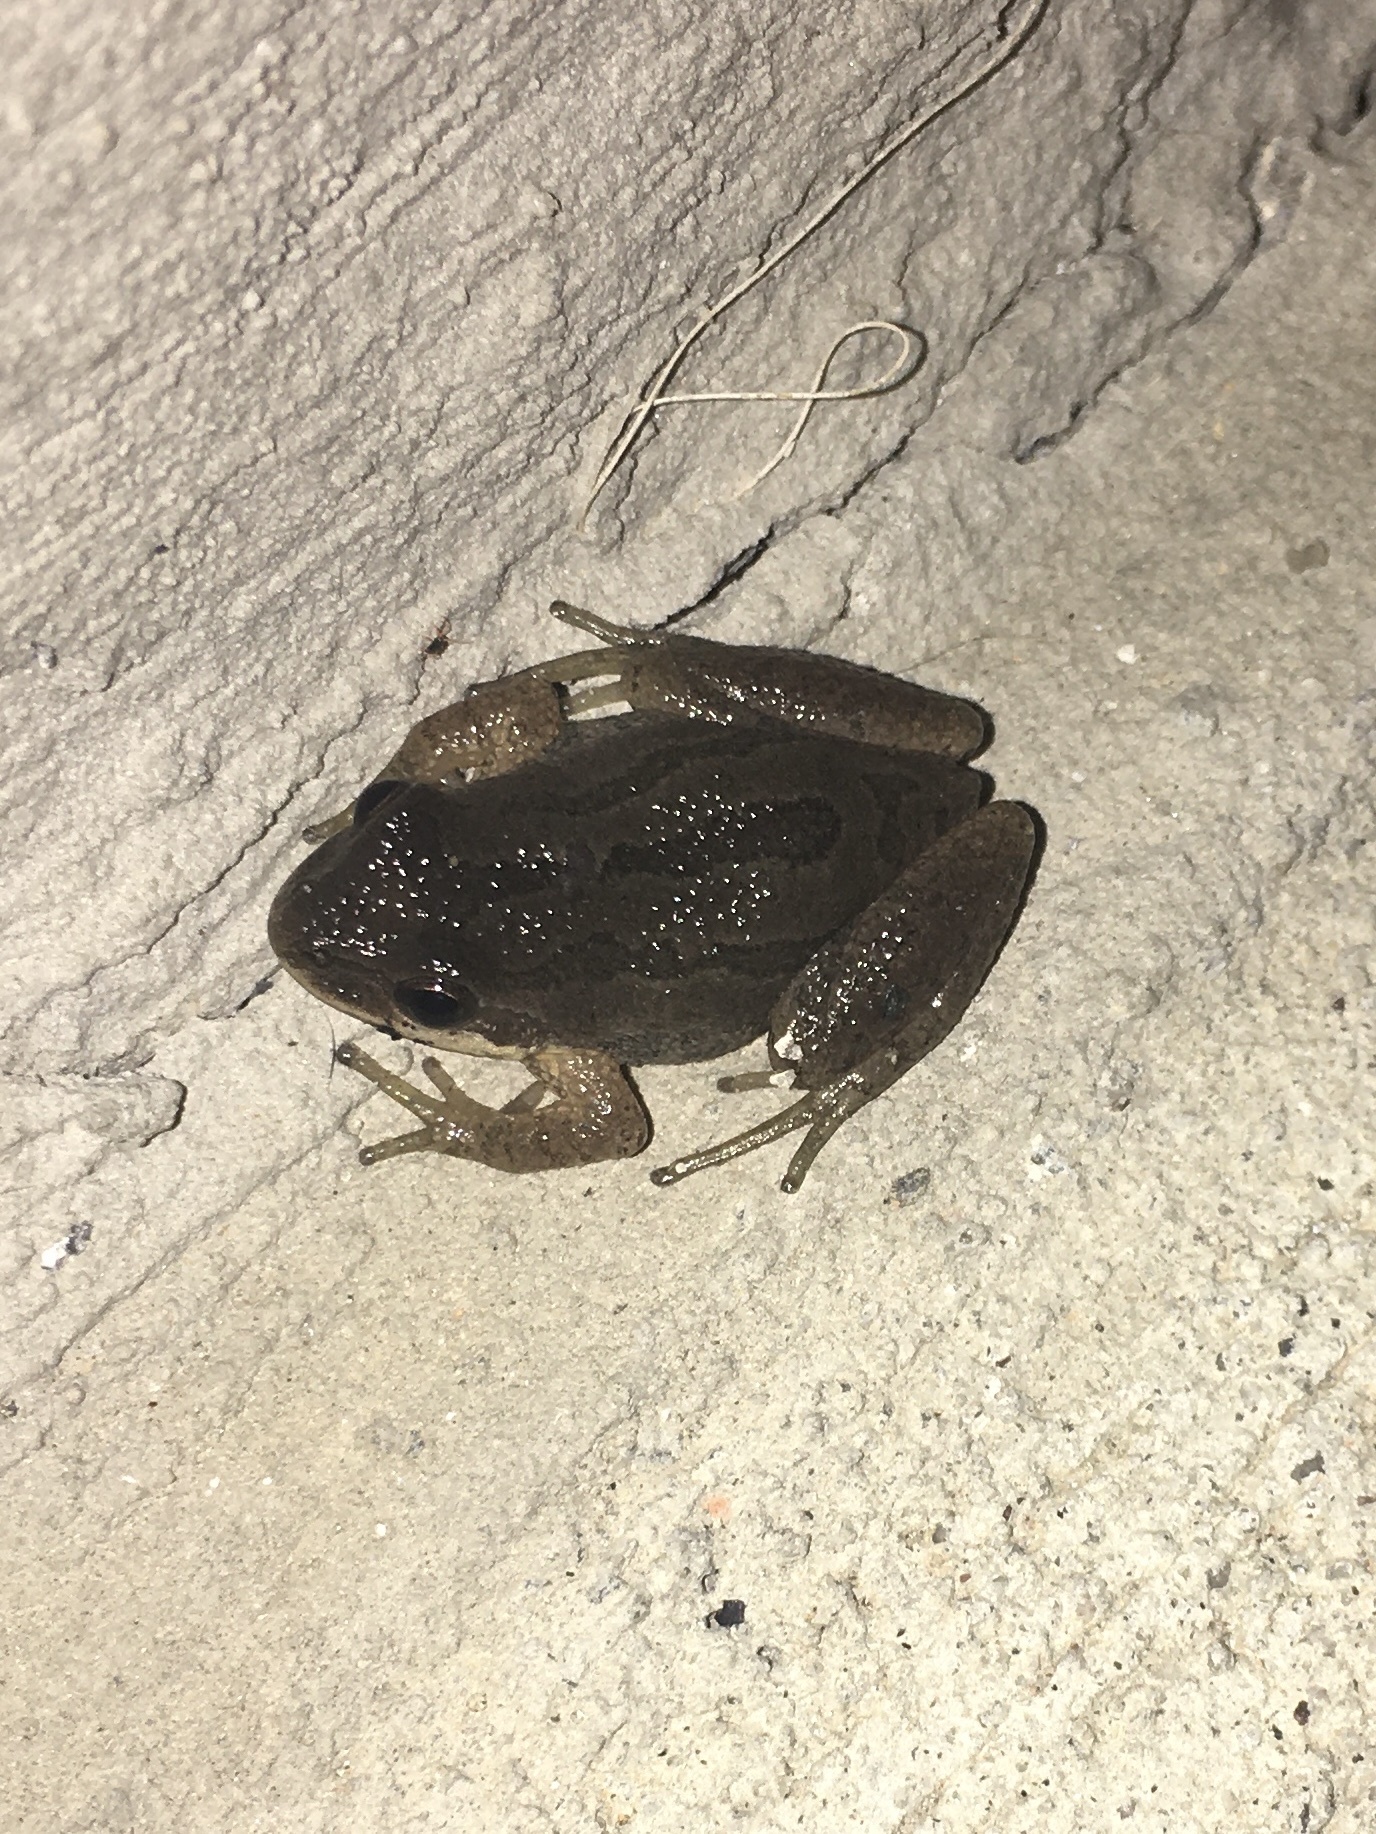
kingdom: Animalia
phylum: Chordata
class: Amphibia
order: Anura
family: Hylidae
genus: Pseudacris
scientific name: Pseudacris feriarum
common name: Upland chorus frog
